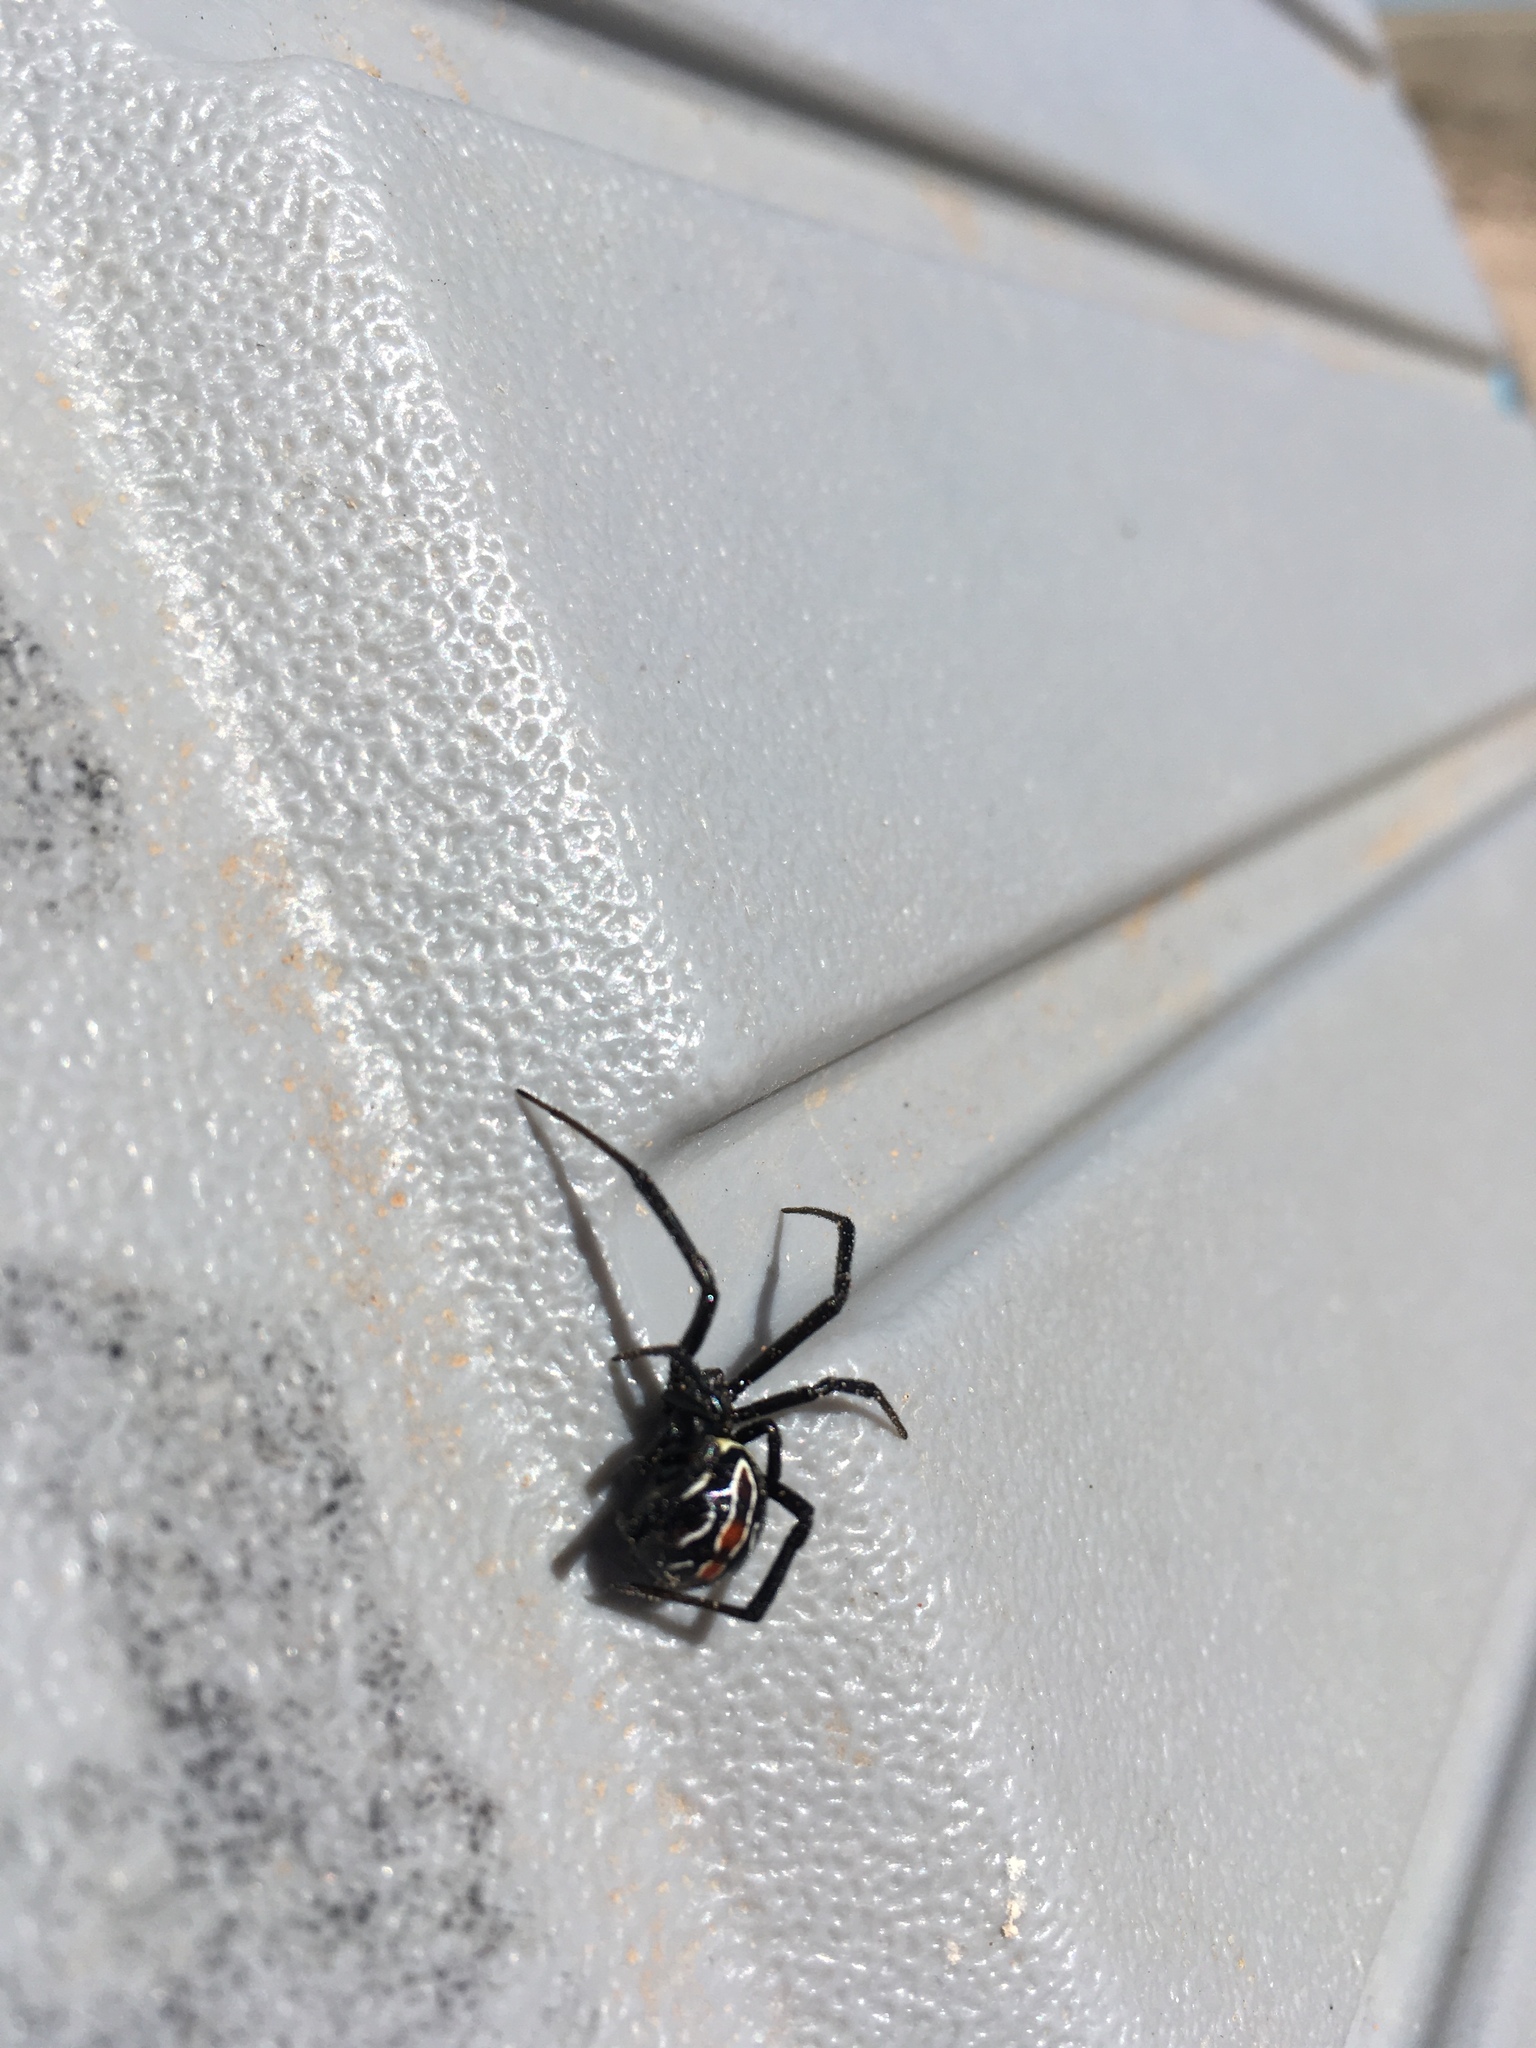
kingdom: Animalia
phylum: Arthropoda
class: Arachnida
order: Araneae
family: Theridiidae
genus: Latrodectus
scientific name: Latrodectus hesperus
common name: Western black widow
